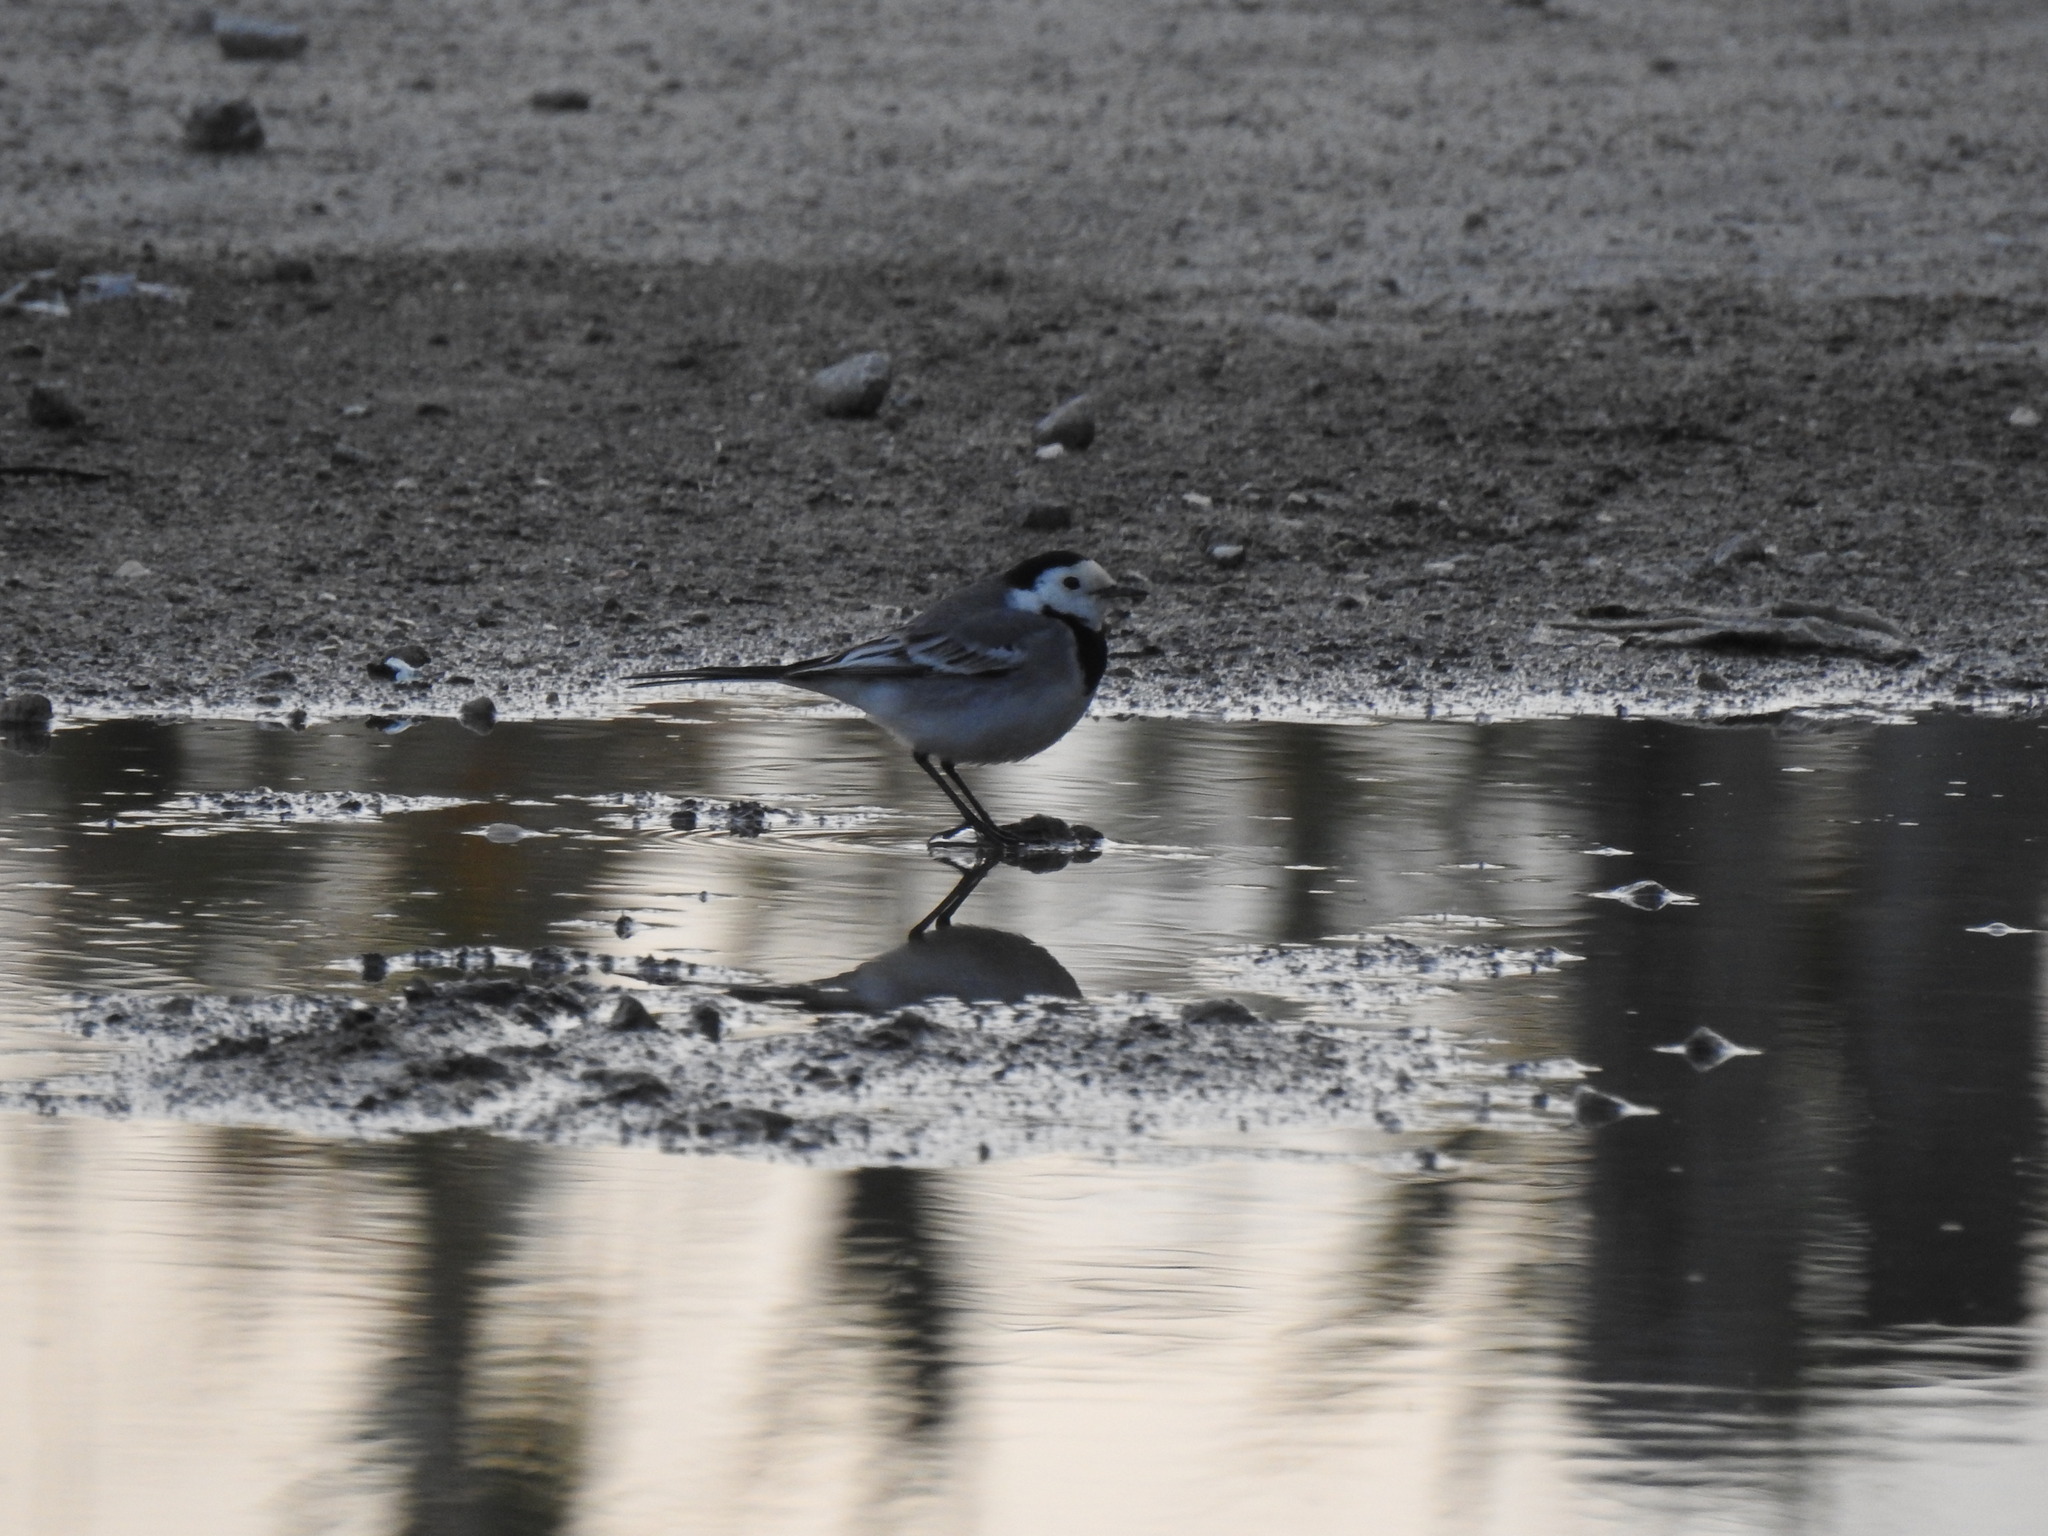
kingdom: Animalia
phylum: Chordata
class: Aves
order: Passeriformes
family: Motacillidae
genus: Motacilla
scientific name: Motacilla alba
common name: White wagtail
